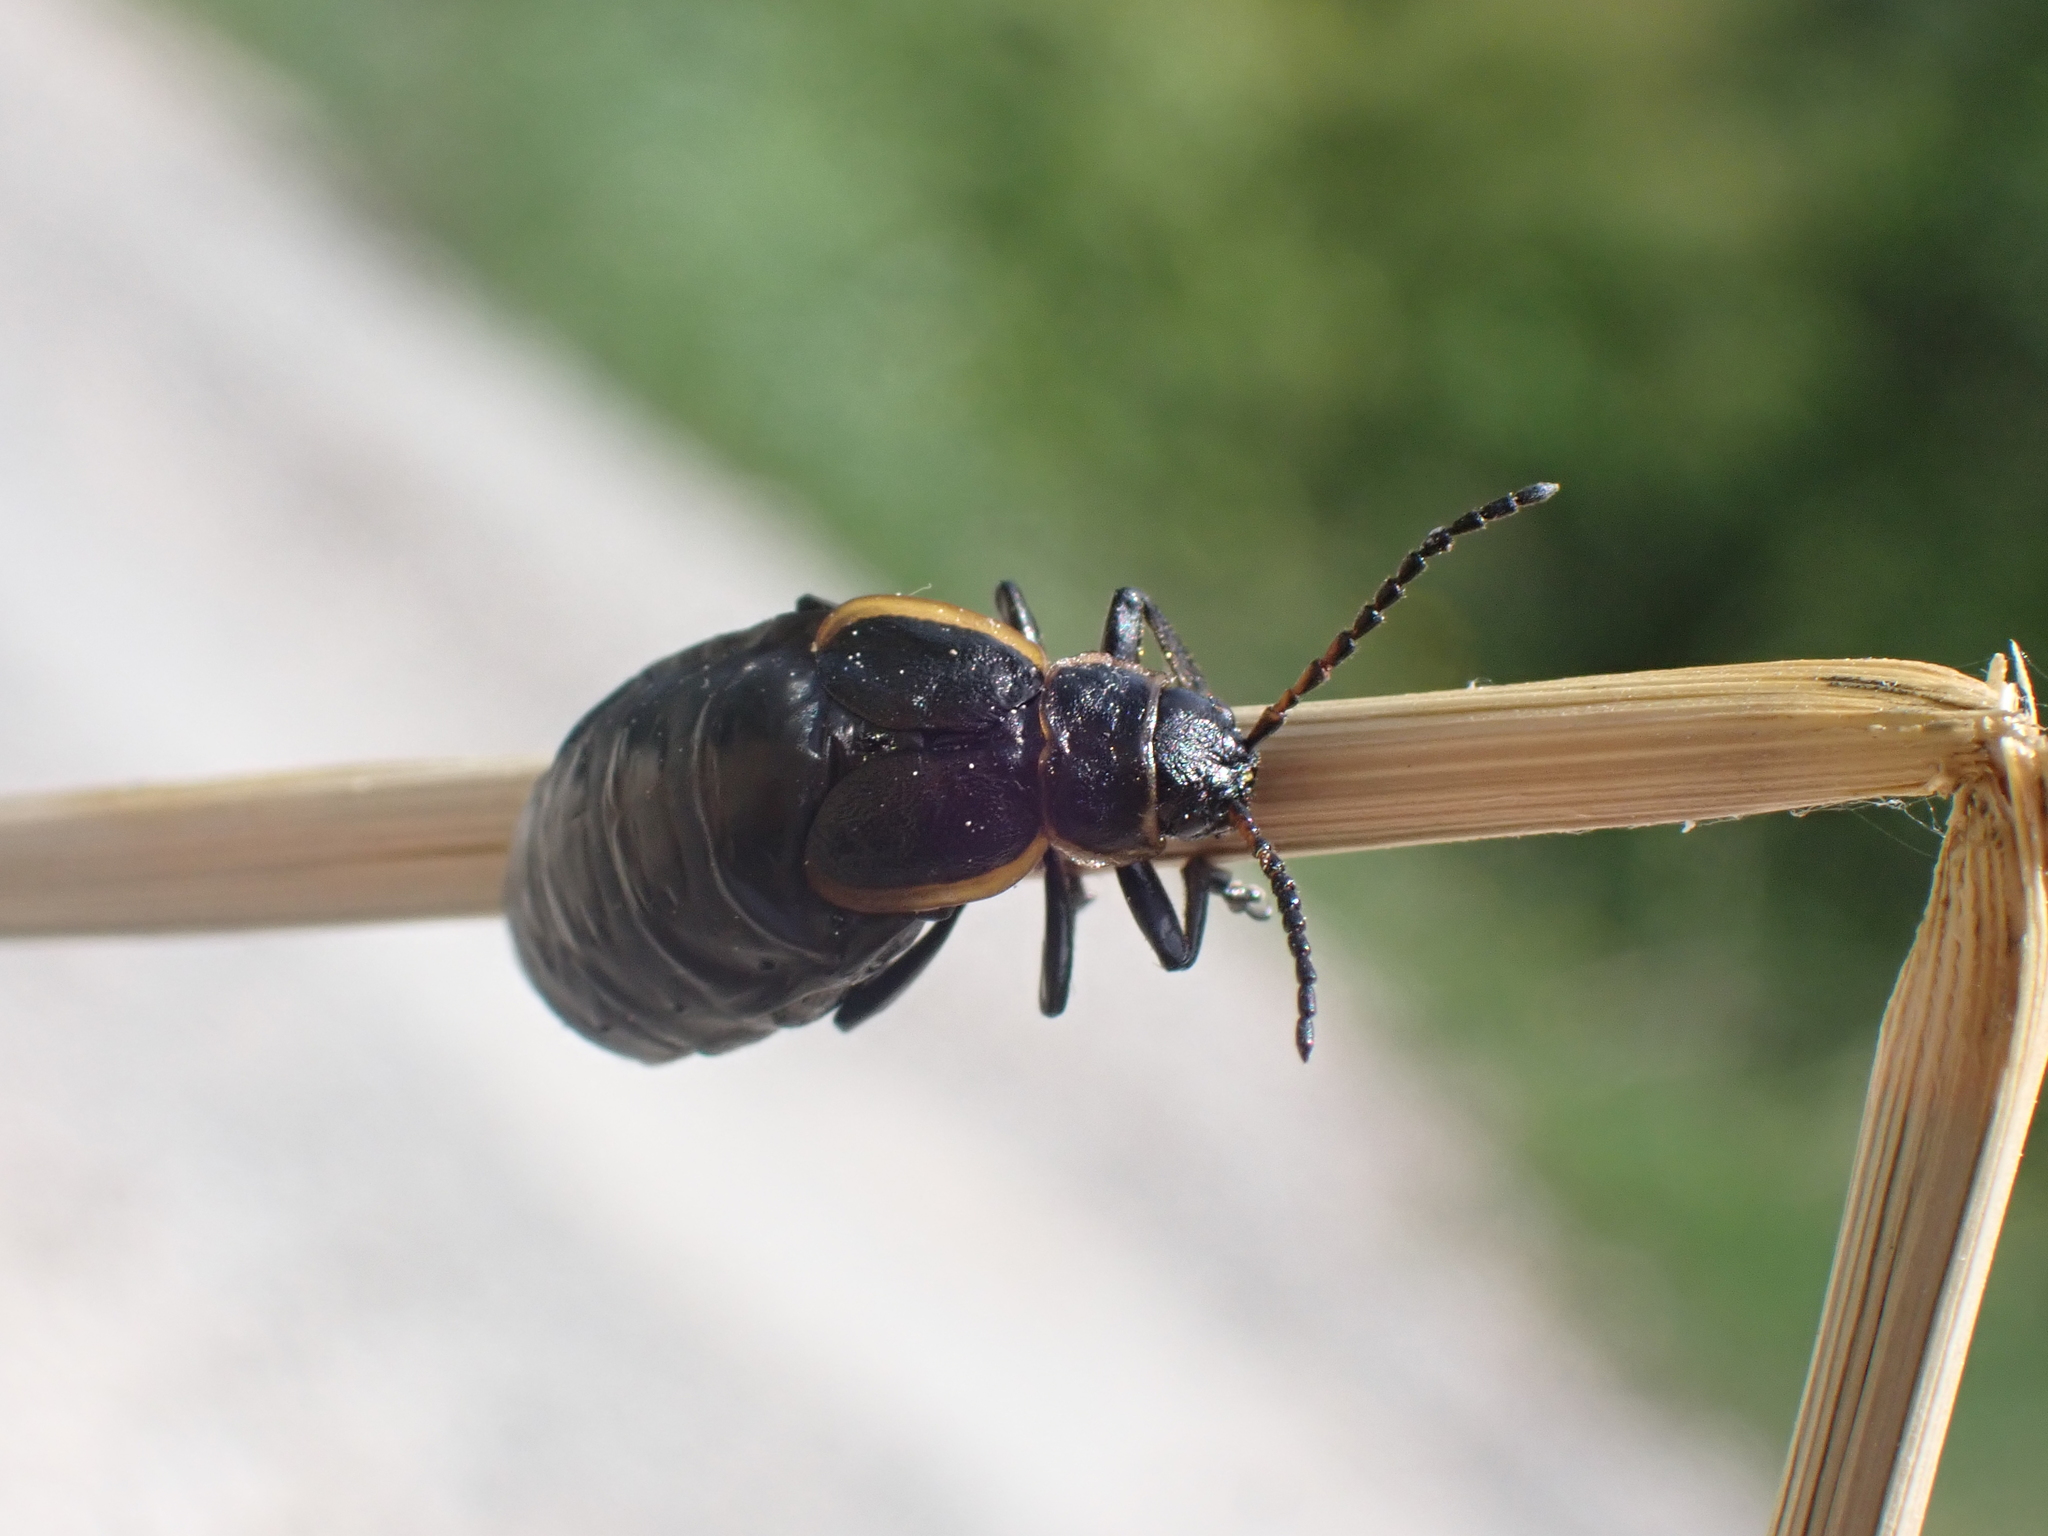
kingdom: Animalia
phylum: Arthropoda
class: Insecta
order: Coleoptera
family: Chrysomelidae
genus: Arima
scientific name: Arima marginata
